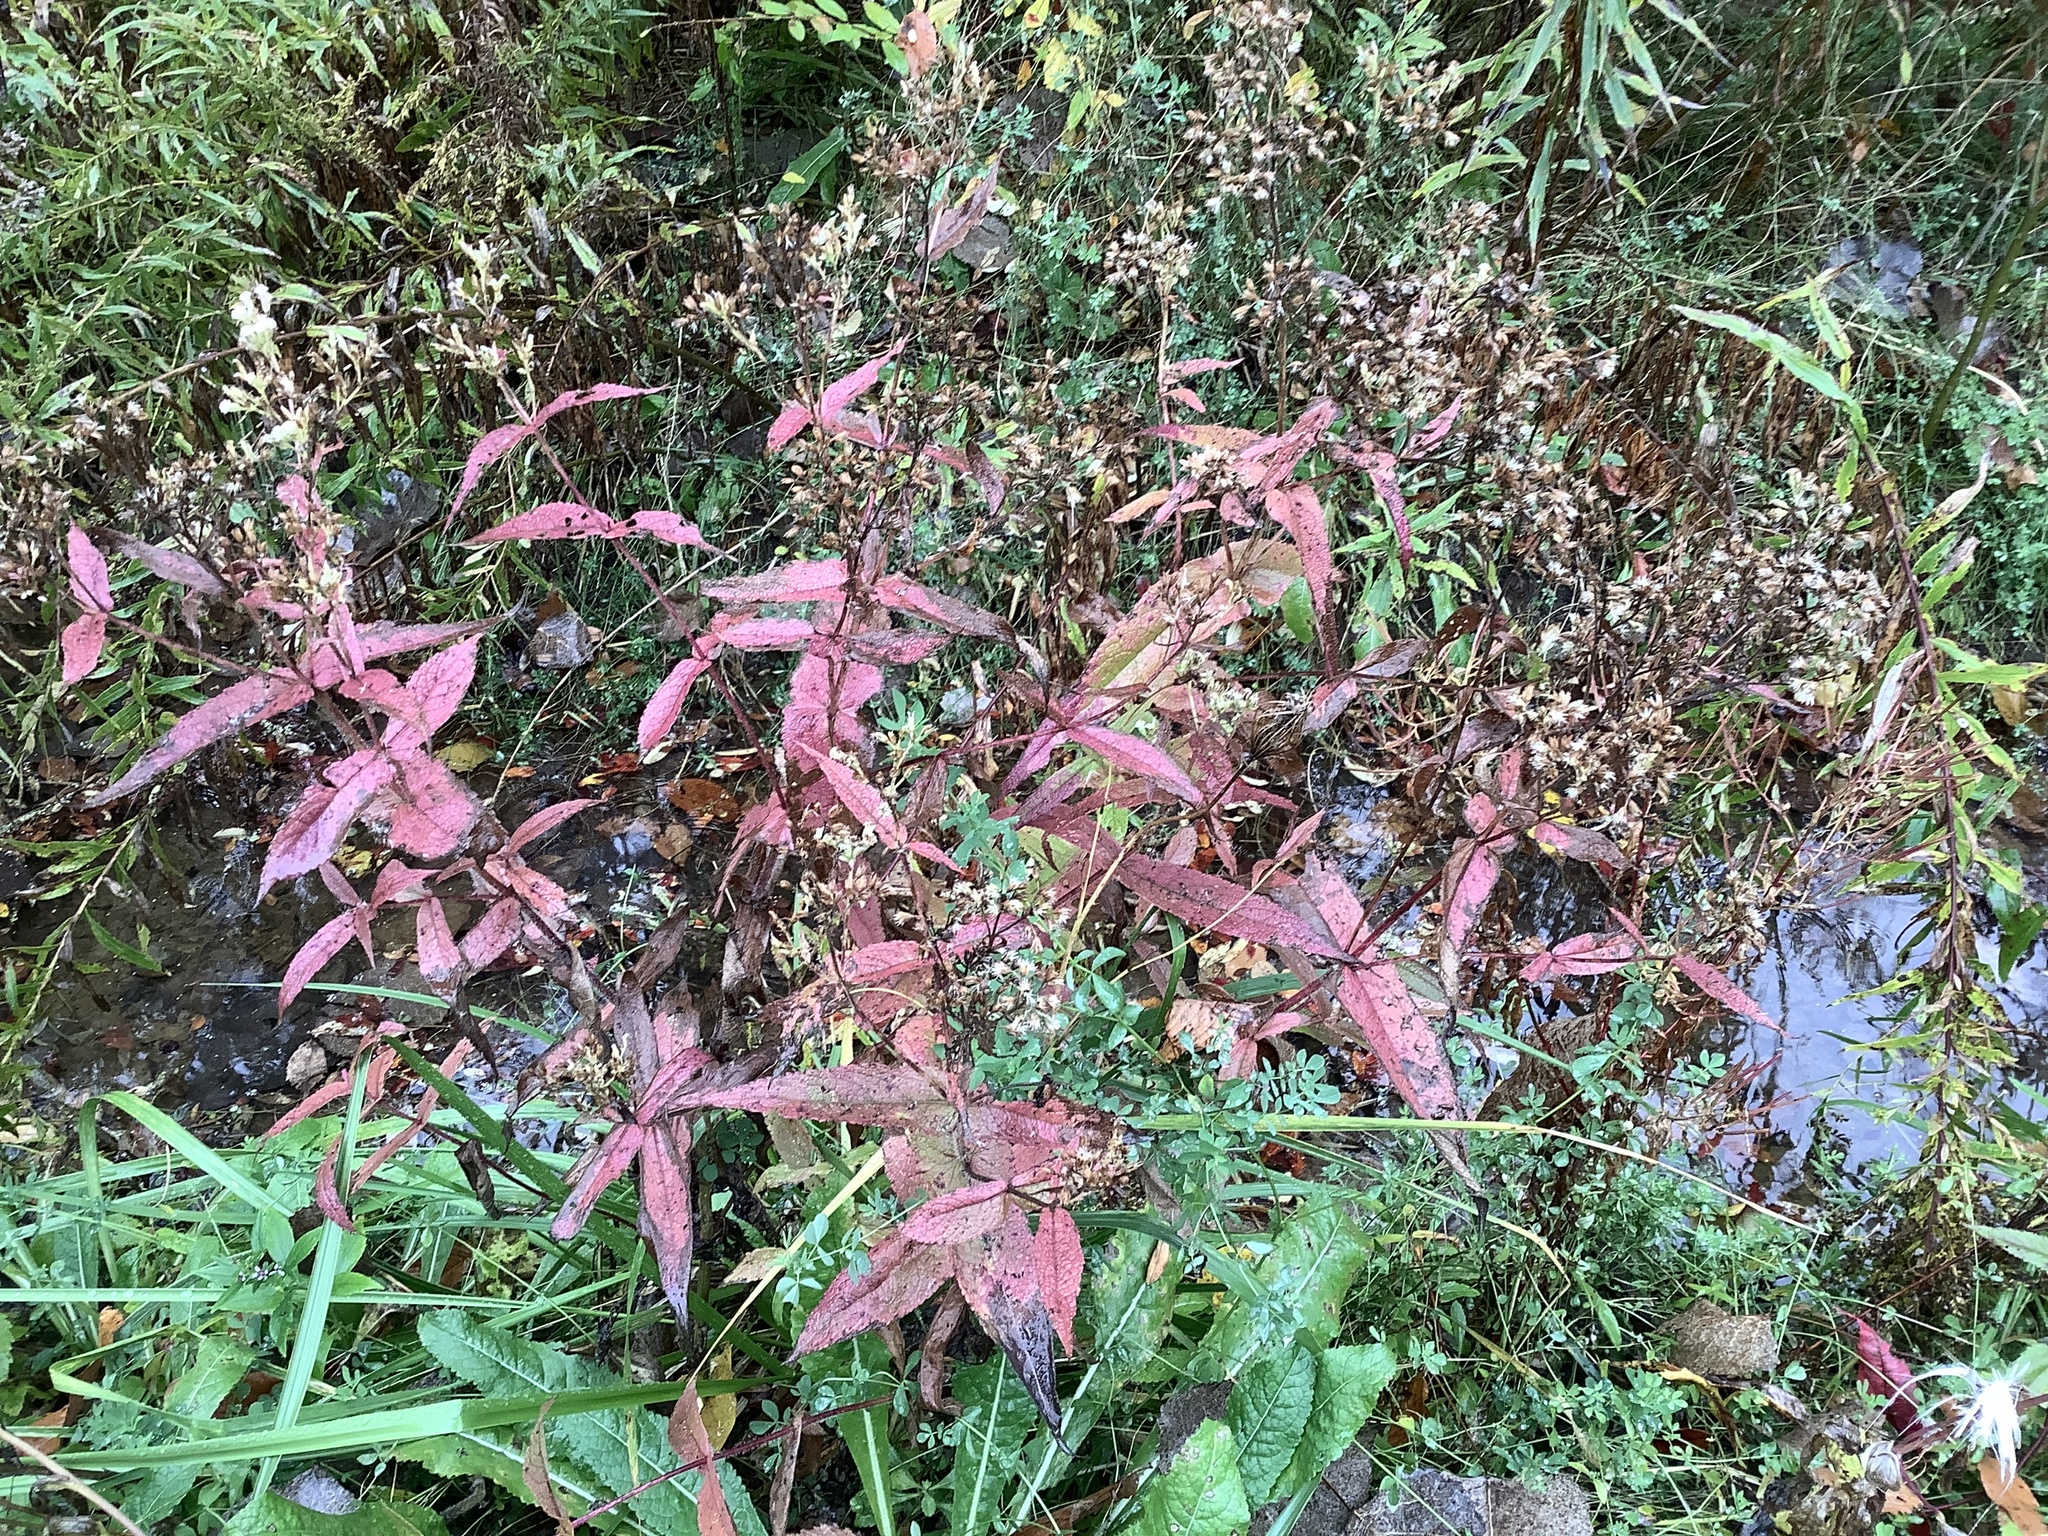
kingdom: Plantae
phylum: Tracheophyta
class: Magnoliopsida
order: Asterales
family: Asteraceae
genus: Eupatorium
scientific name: Eupatorium perfoliatum
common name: Boneset
